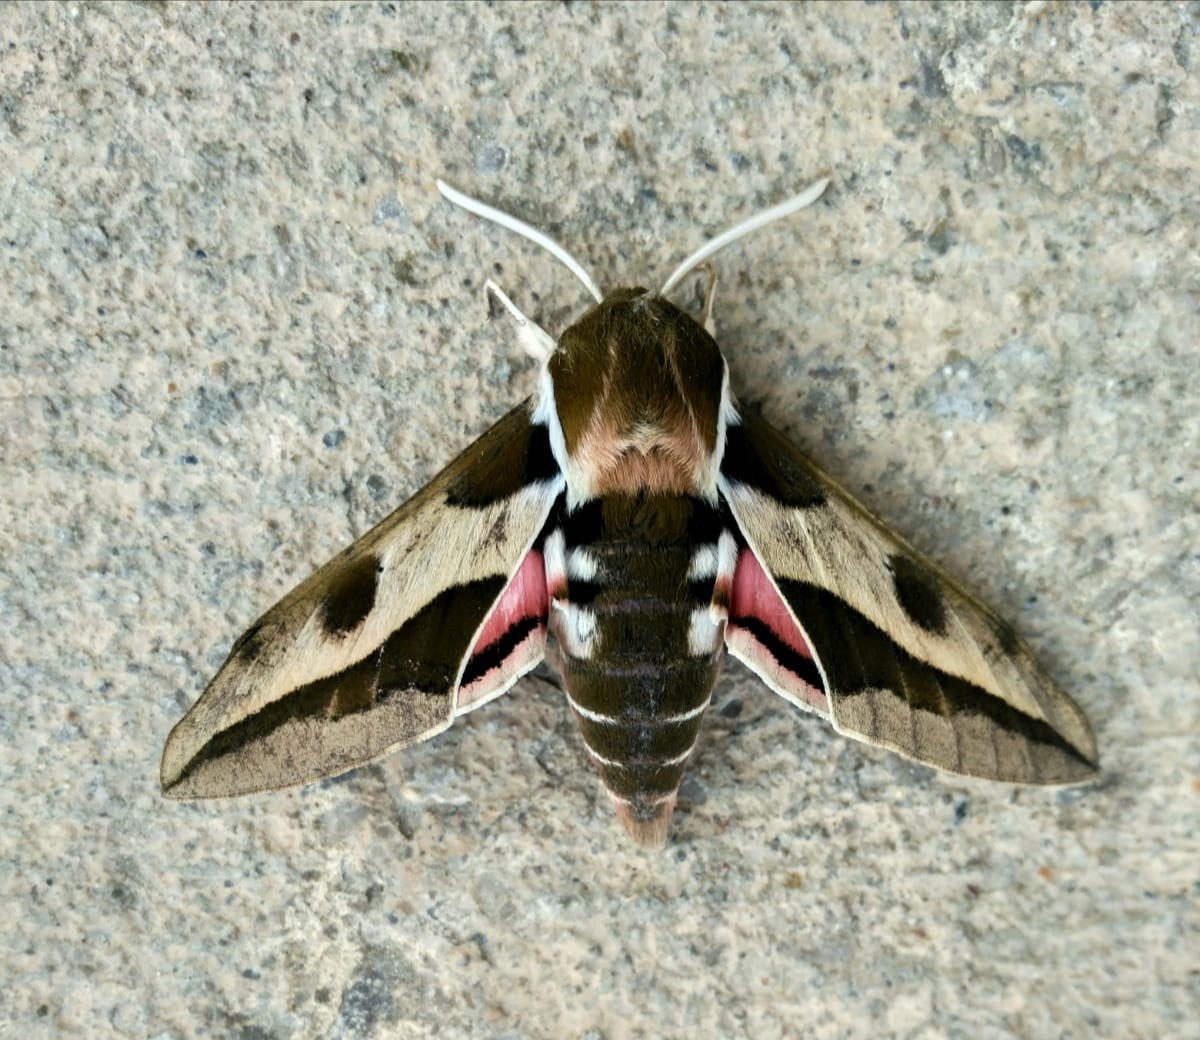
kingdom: Animalia
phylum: Arthropoda
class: Insecta
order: Lepidoptera
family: Sphingidae
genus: Hyles
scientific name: Hyles euphorbiae
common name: Spurge hawk-moth
